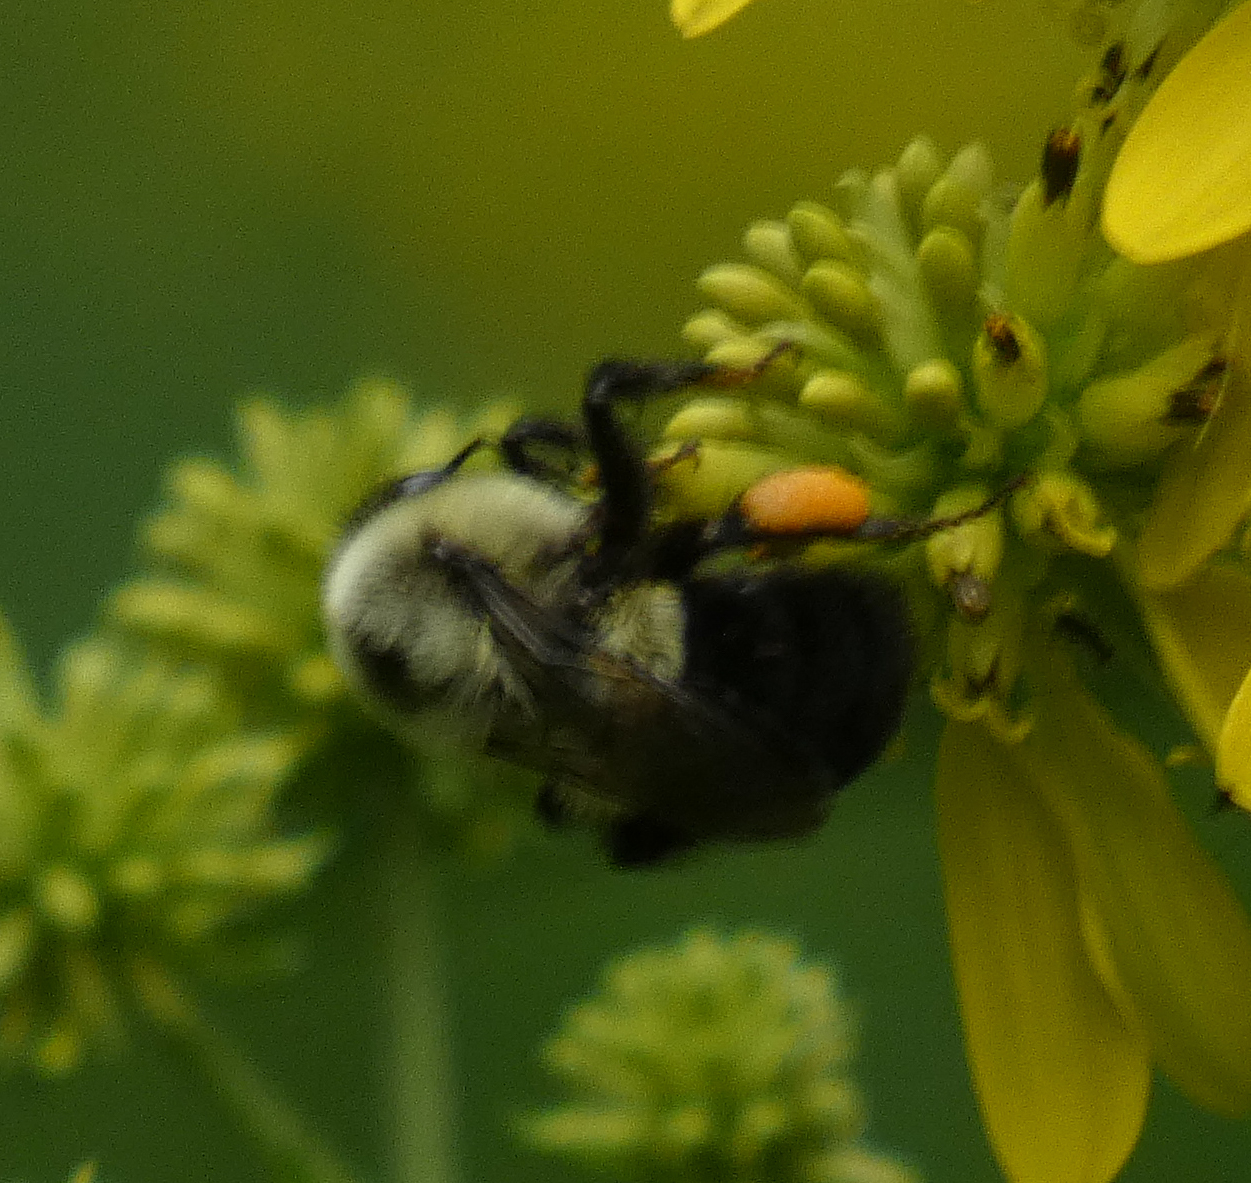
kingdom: Animalia
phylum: Arthropoda
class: Insecta
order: Hymenoptera
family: Apidae
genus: Bombus
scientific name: Bombus impatiens
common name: Common eastern bumble bee
